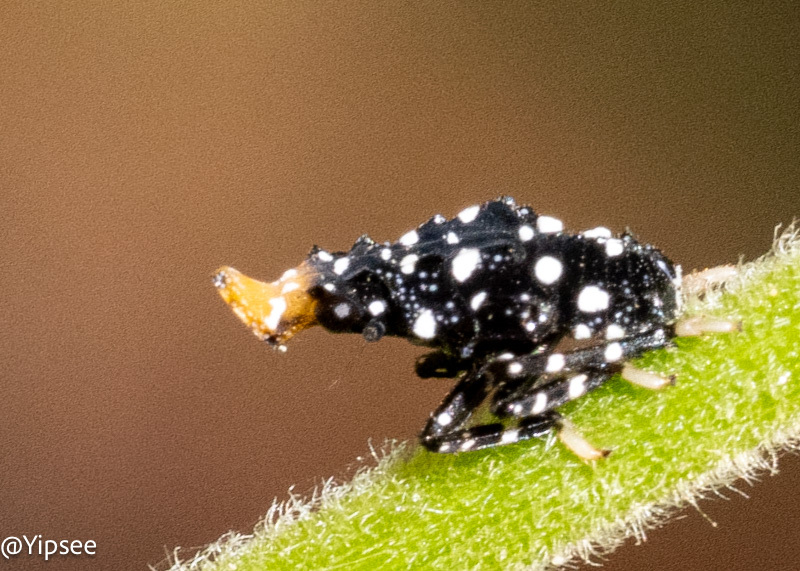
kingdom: Animalia
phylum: Arthropoda
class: Insecta
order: Hemiptera
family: Fulgoridae
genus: Kalidasa
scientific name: Kalidasa nigromaculata
